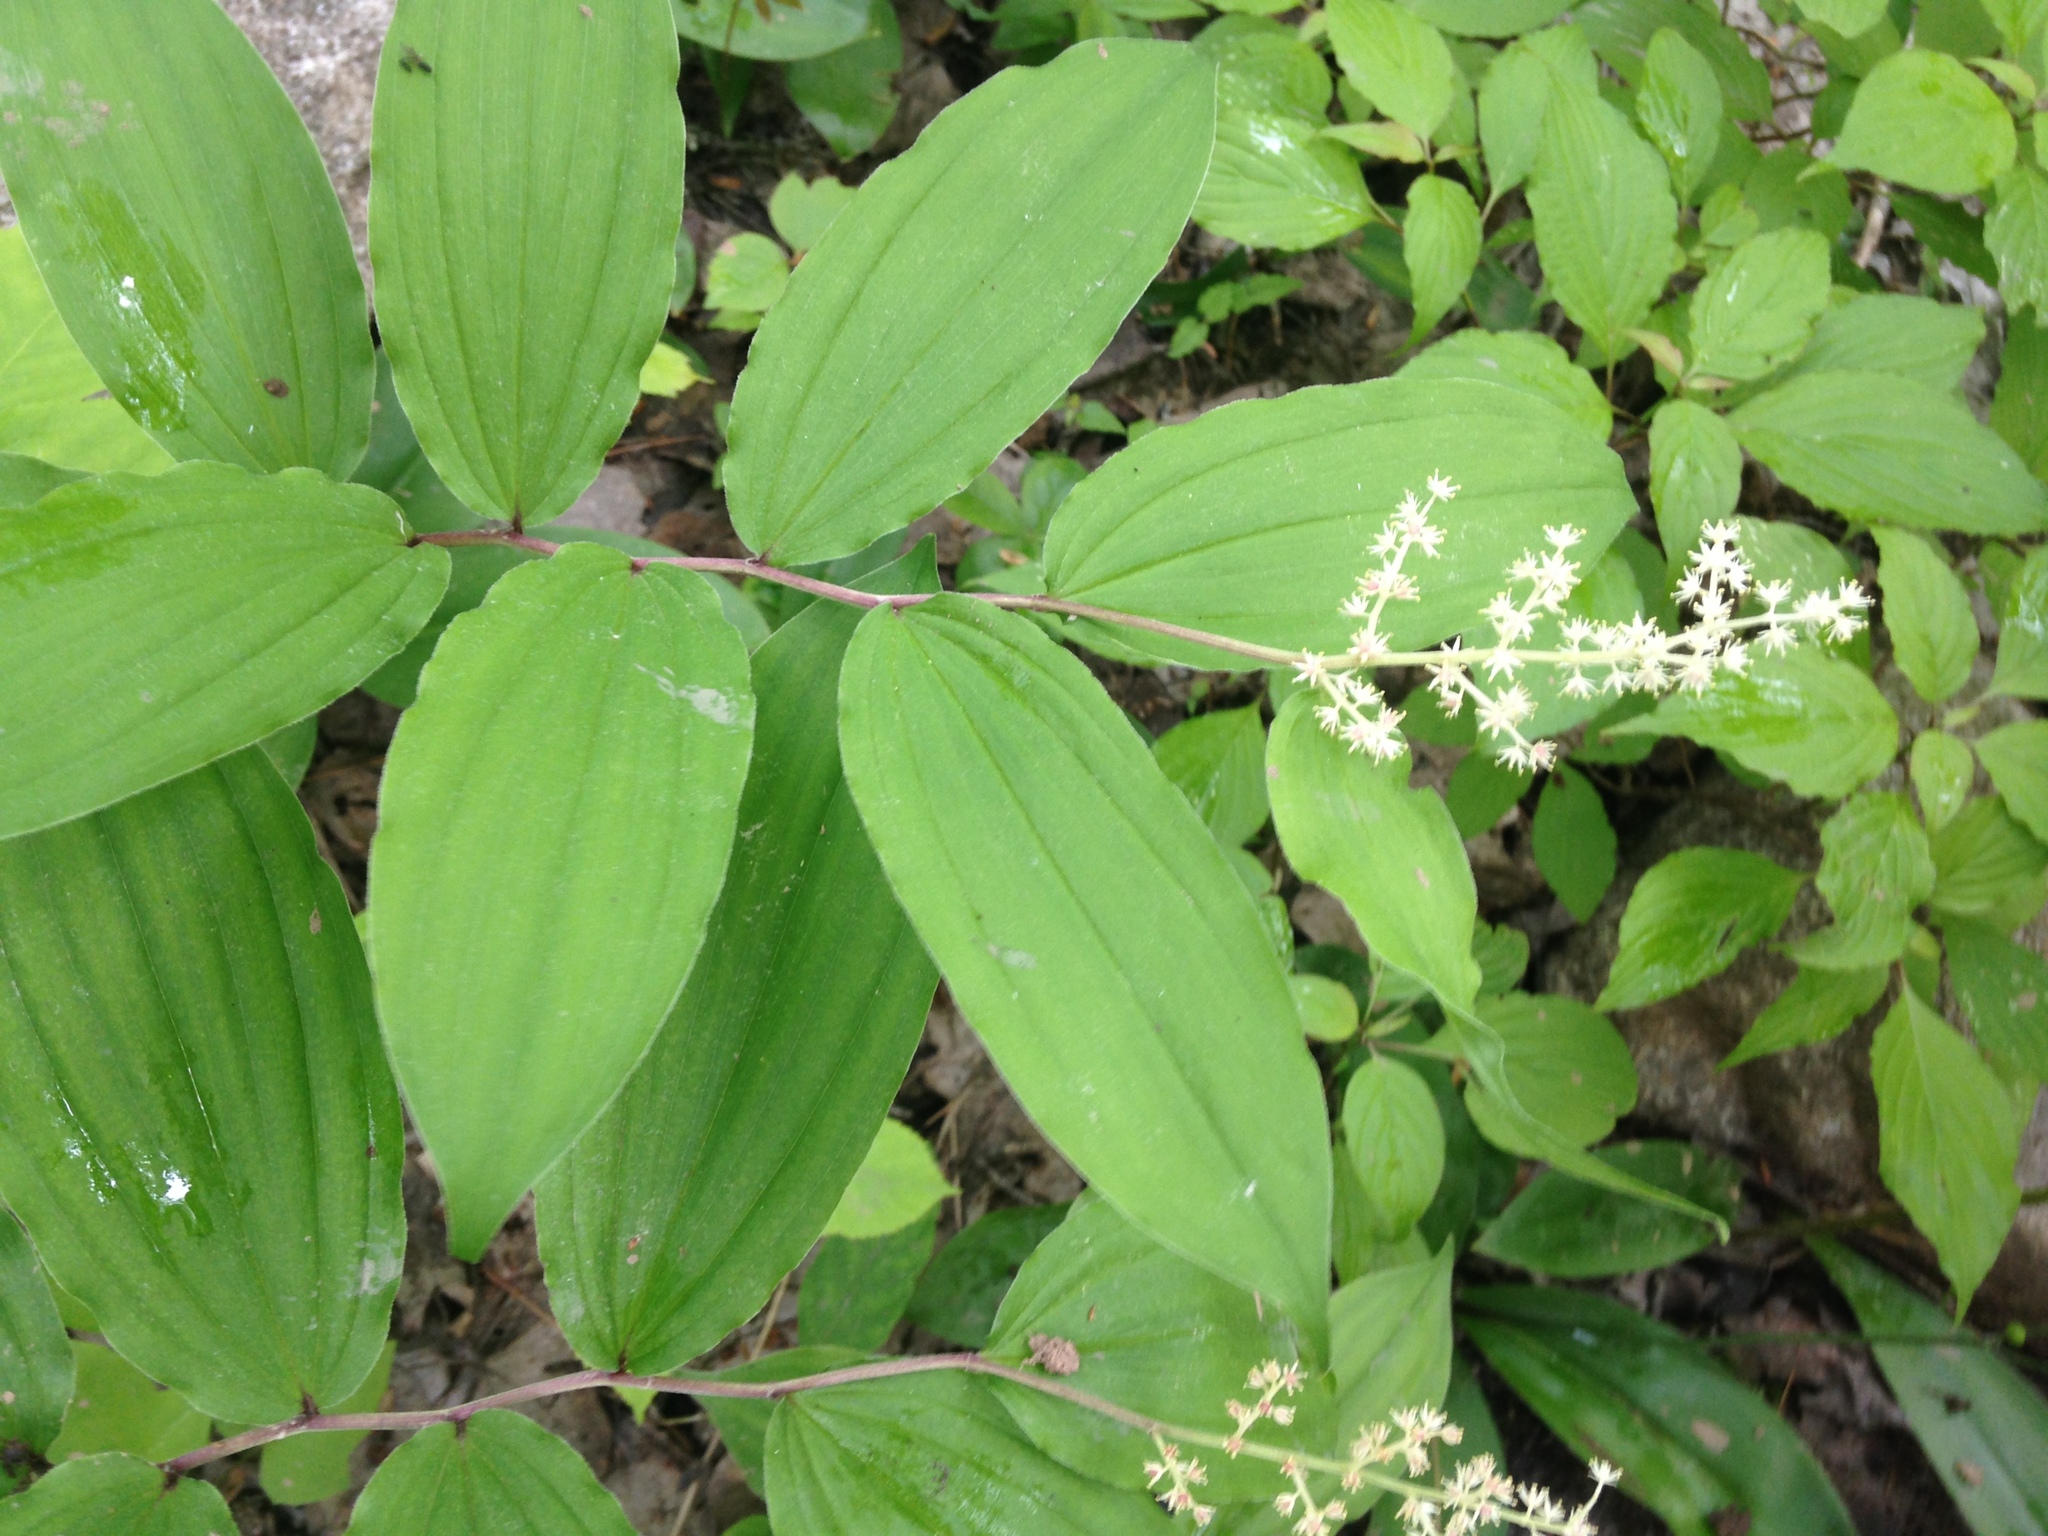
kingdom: Plantae
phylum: Tracheophyta
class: Liliopsida
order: Asparagales
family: Asparagaceae
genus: Maianthemum
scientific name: Maianthemum racemosum
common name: False spikenard
